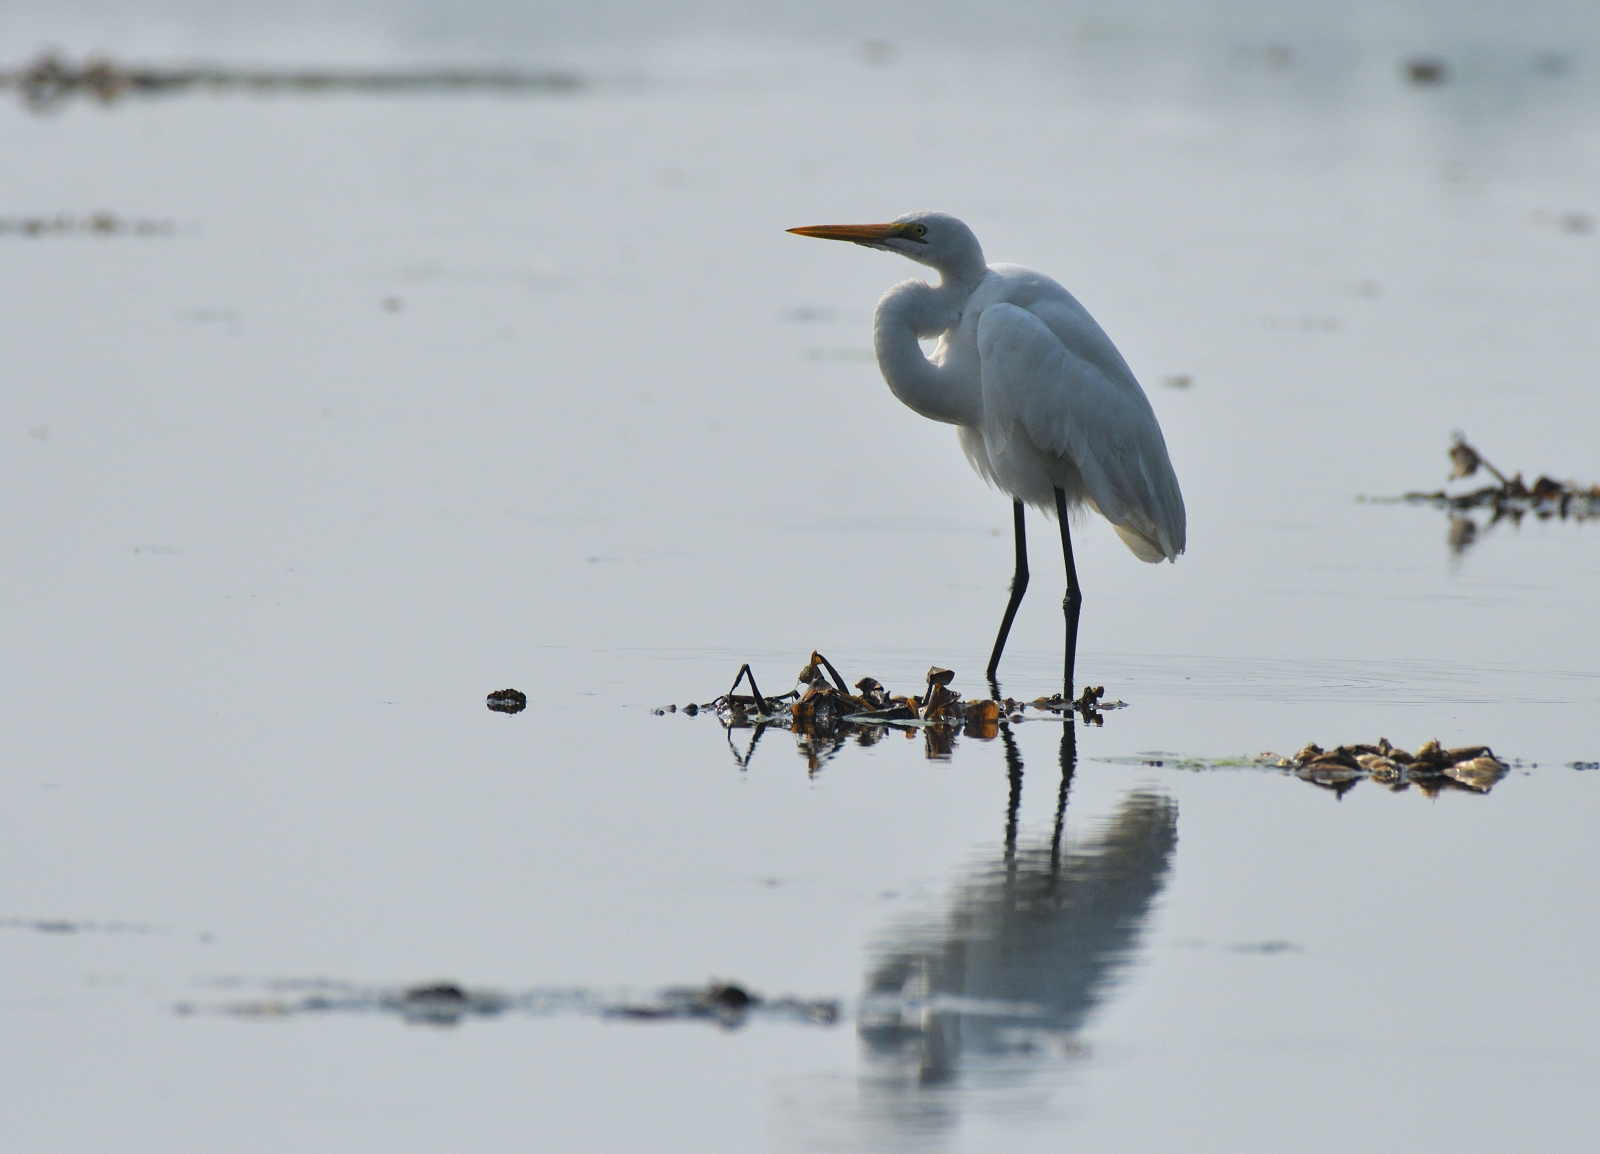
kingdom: Animalia
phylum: Chordata
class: Aves
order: Pelecaniformes
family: Ardeidae
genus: Ardea
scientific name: Ardea alba
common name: Great egret
